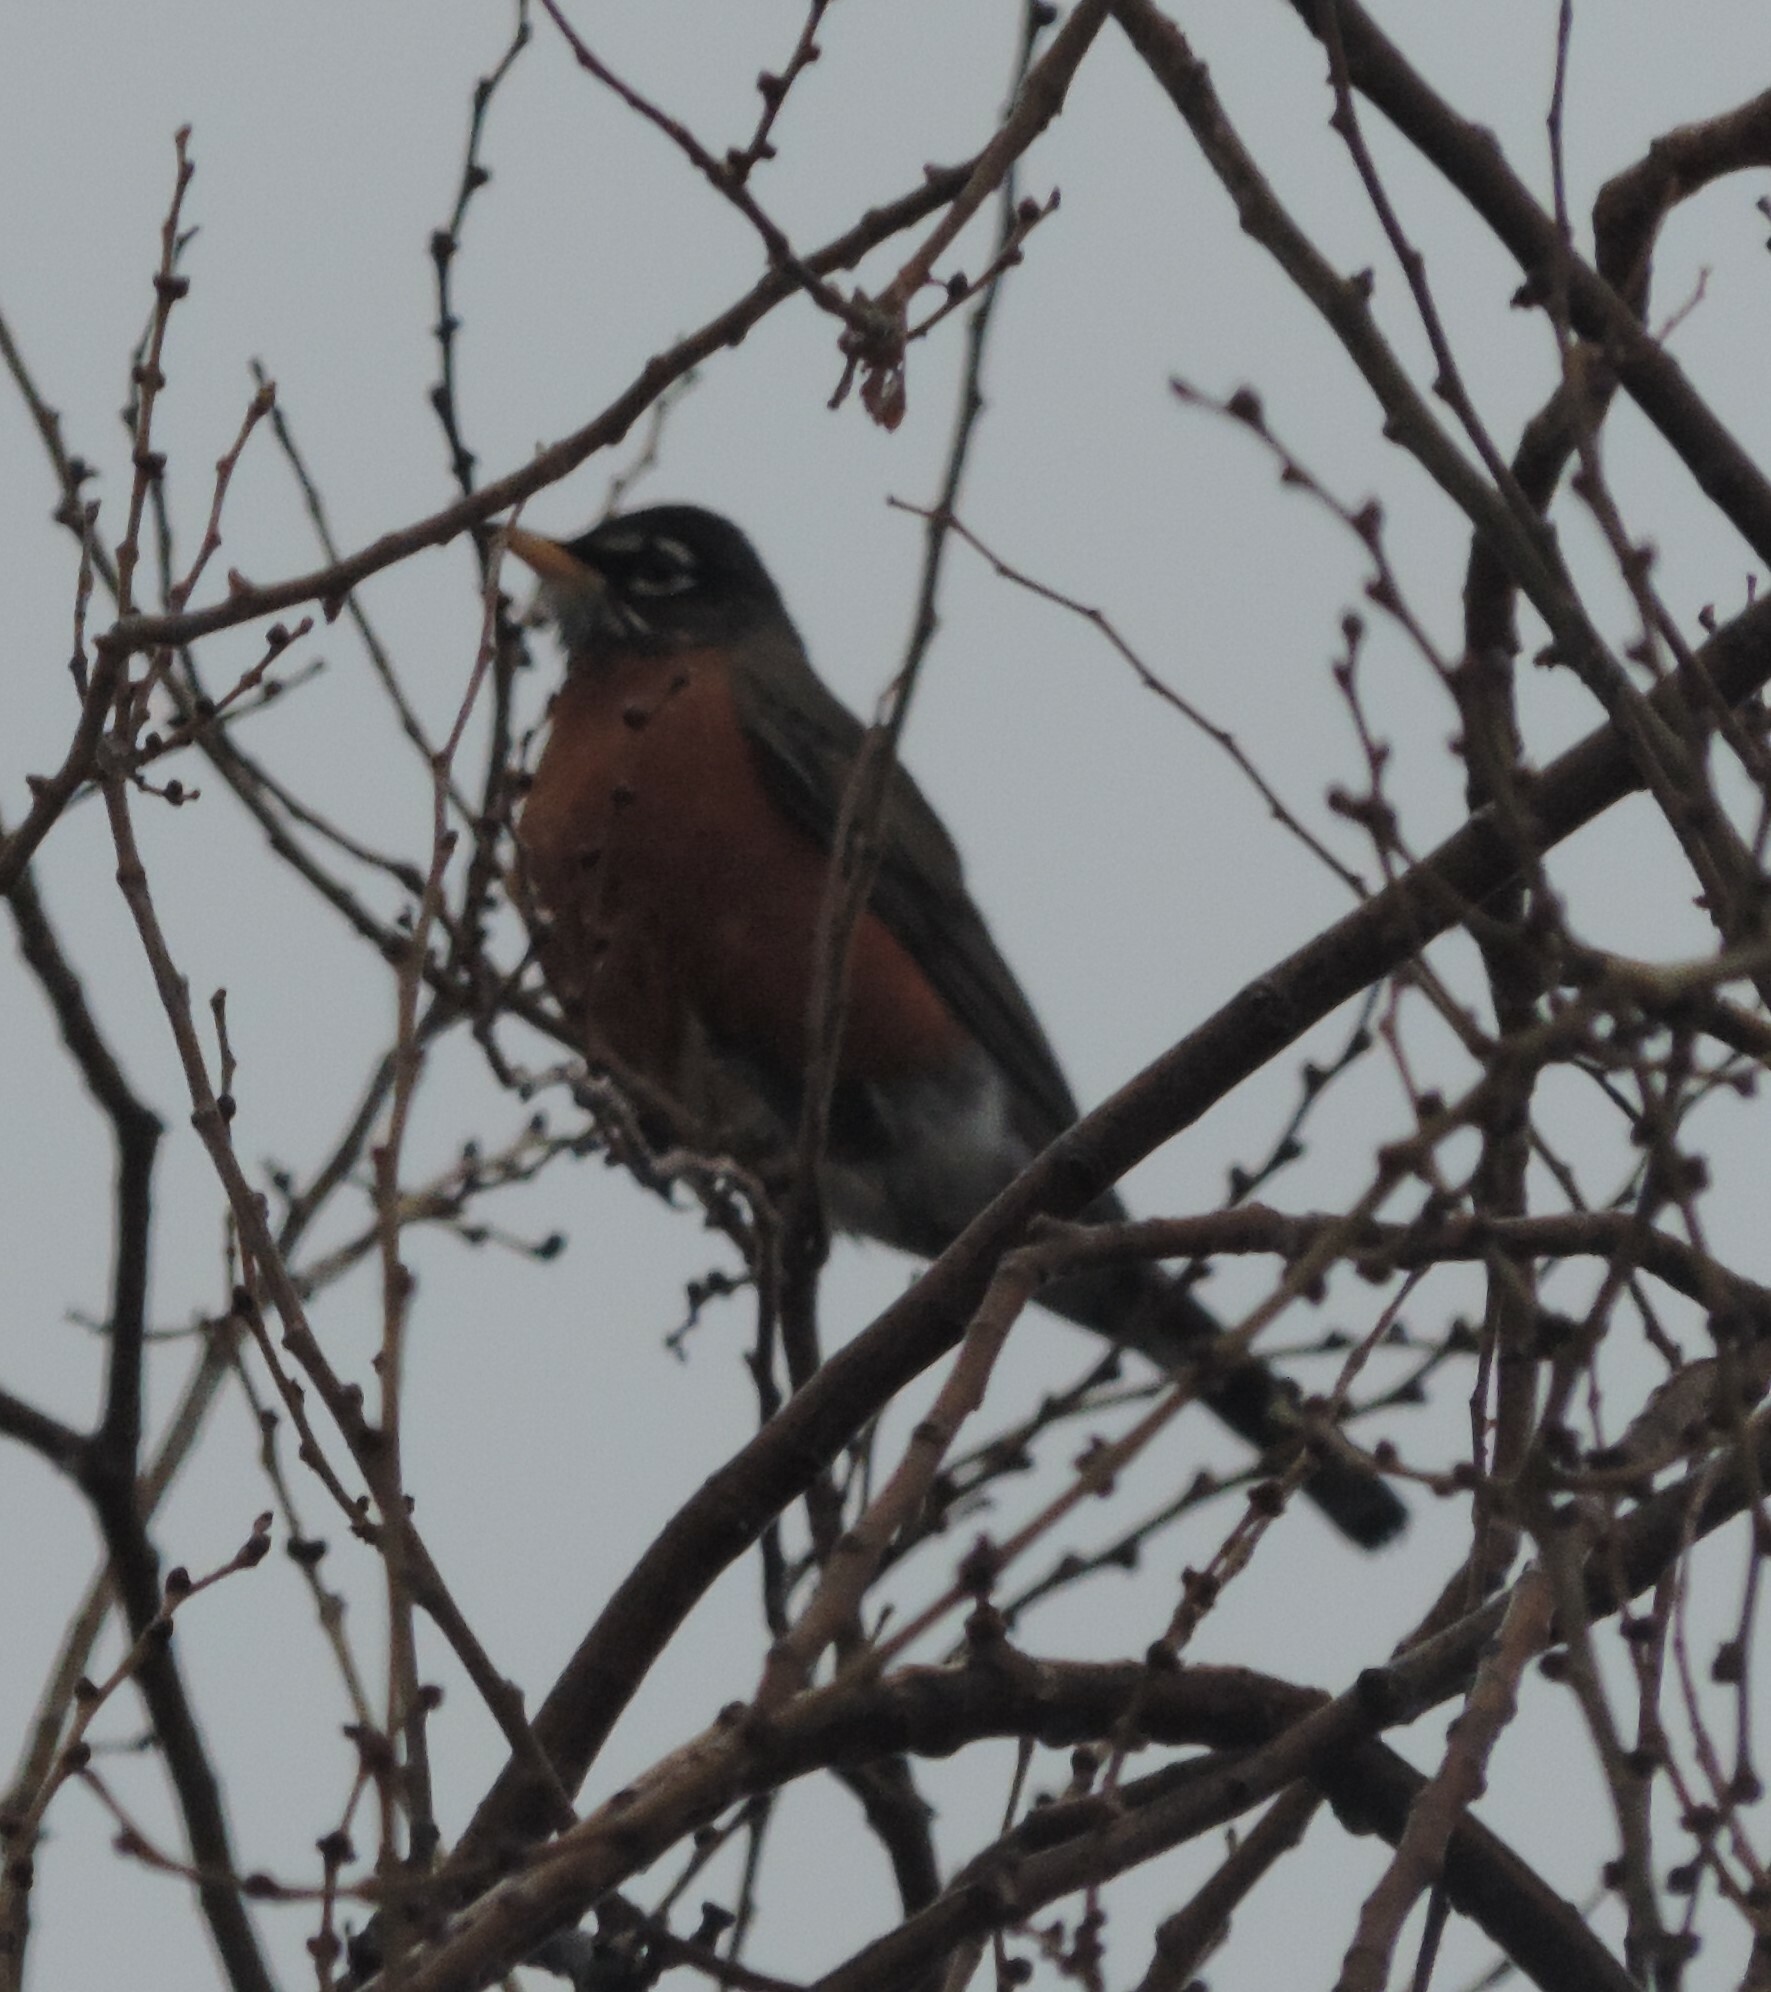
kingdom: Animalia
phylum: Chordata
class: Aves
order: Passeriformes
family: Turdidae
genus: Turdus
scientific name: Turdus migratorius
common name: American robin
